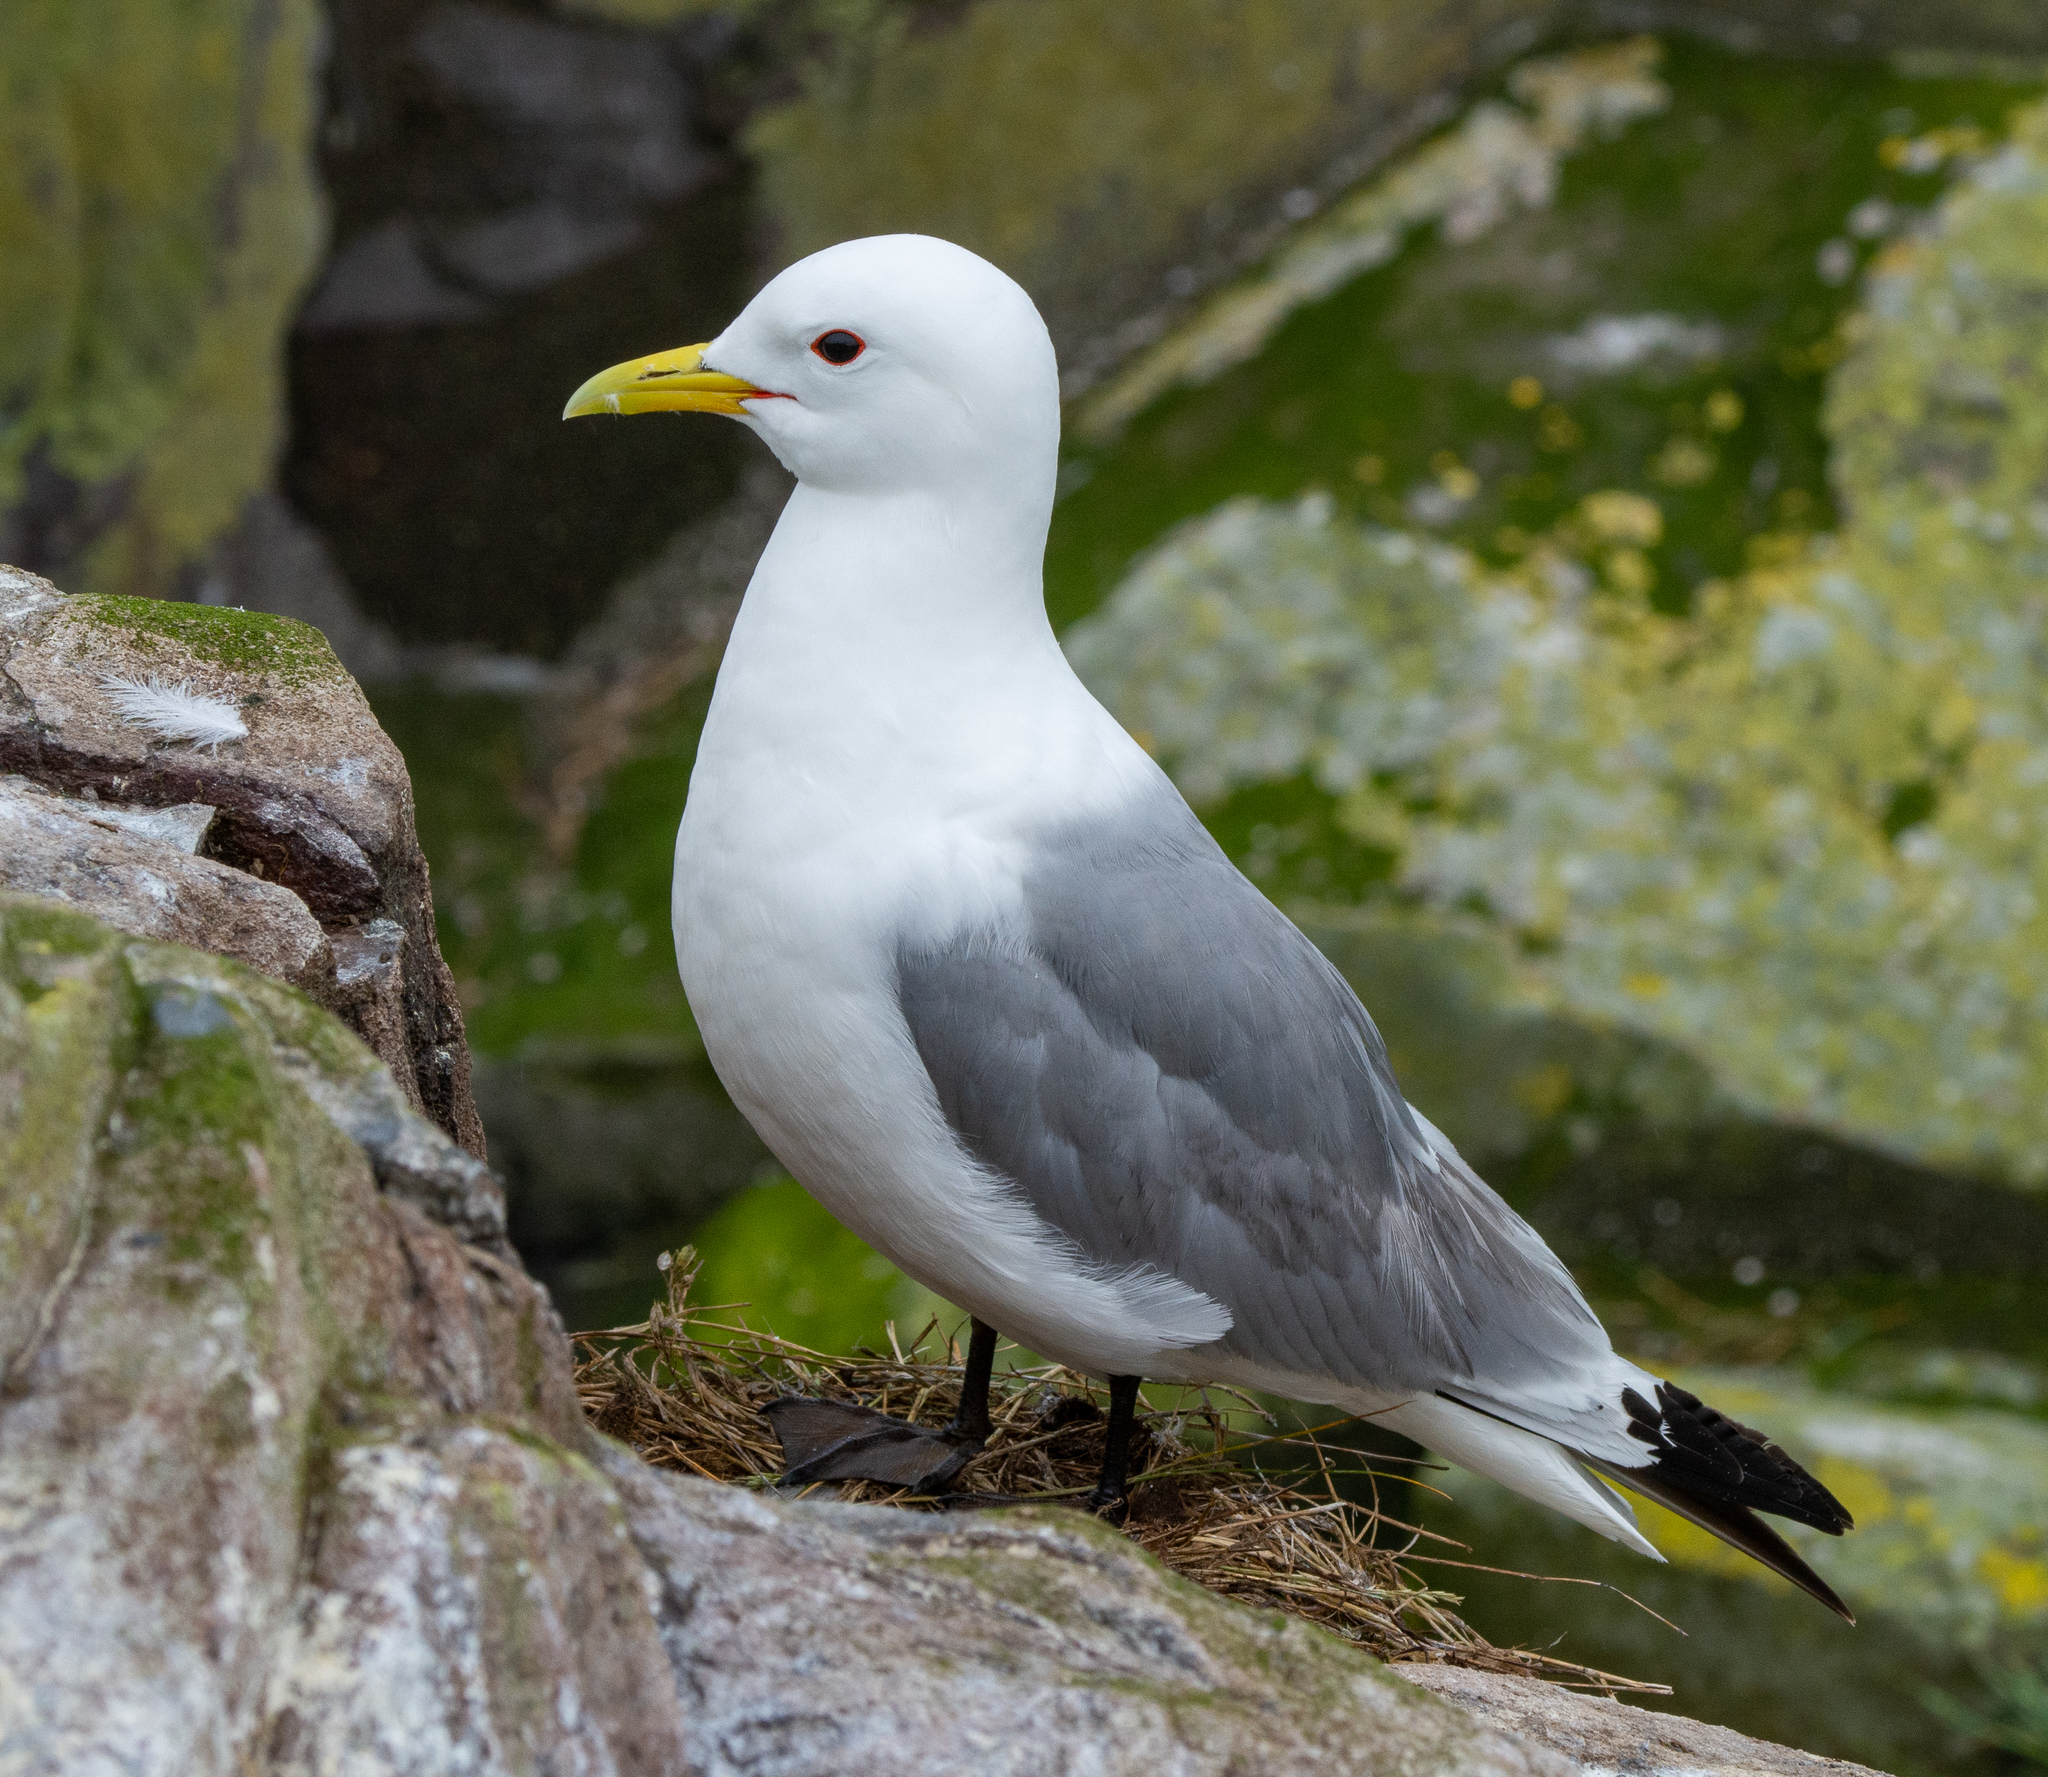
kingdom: Animalia
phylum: Chordata
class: Aves
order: Charadriiformes
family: Laridae
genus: Rissa
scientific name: Rissa tridactyla
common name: Black-legged kittiwake
